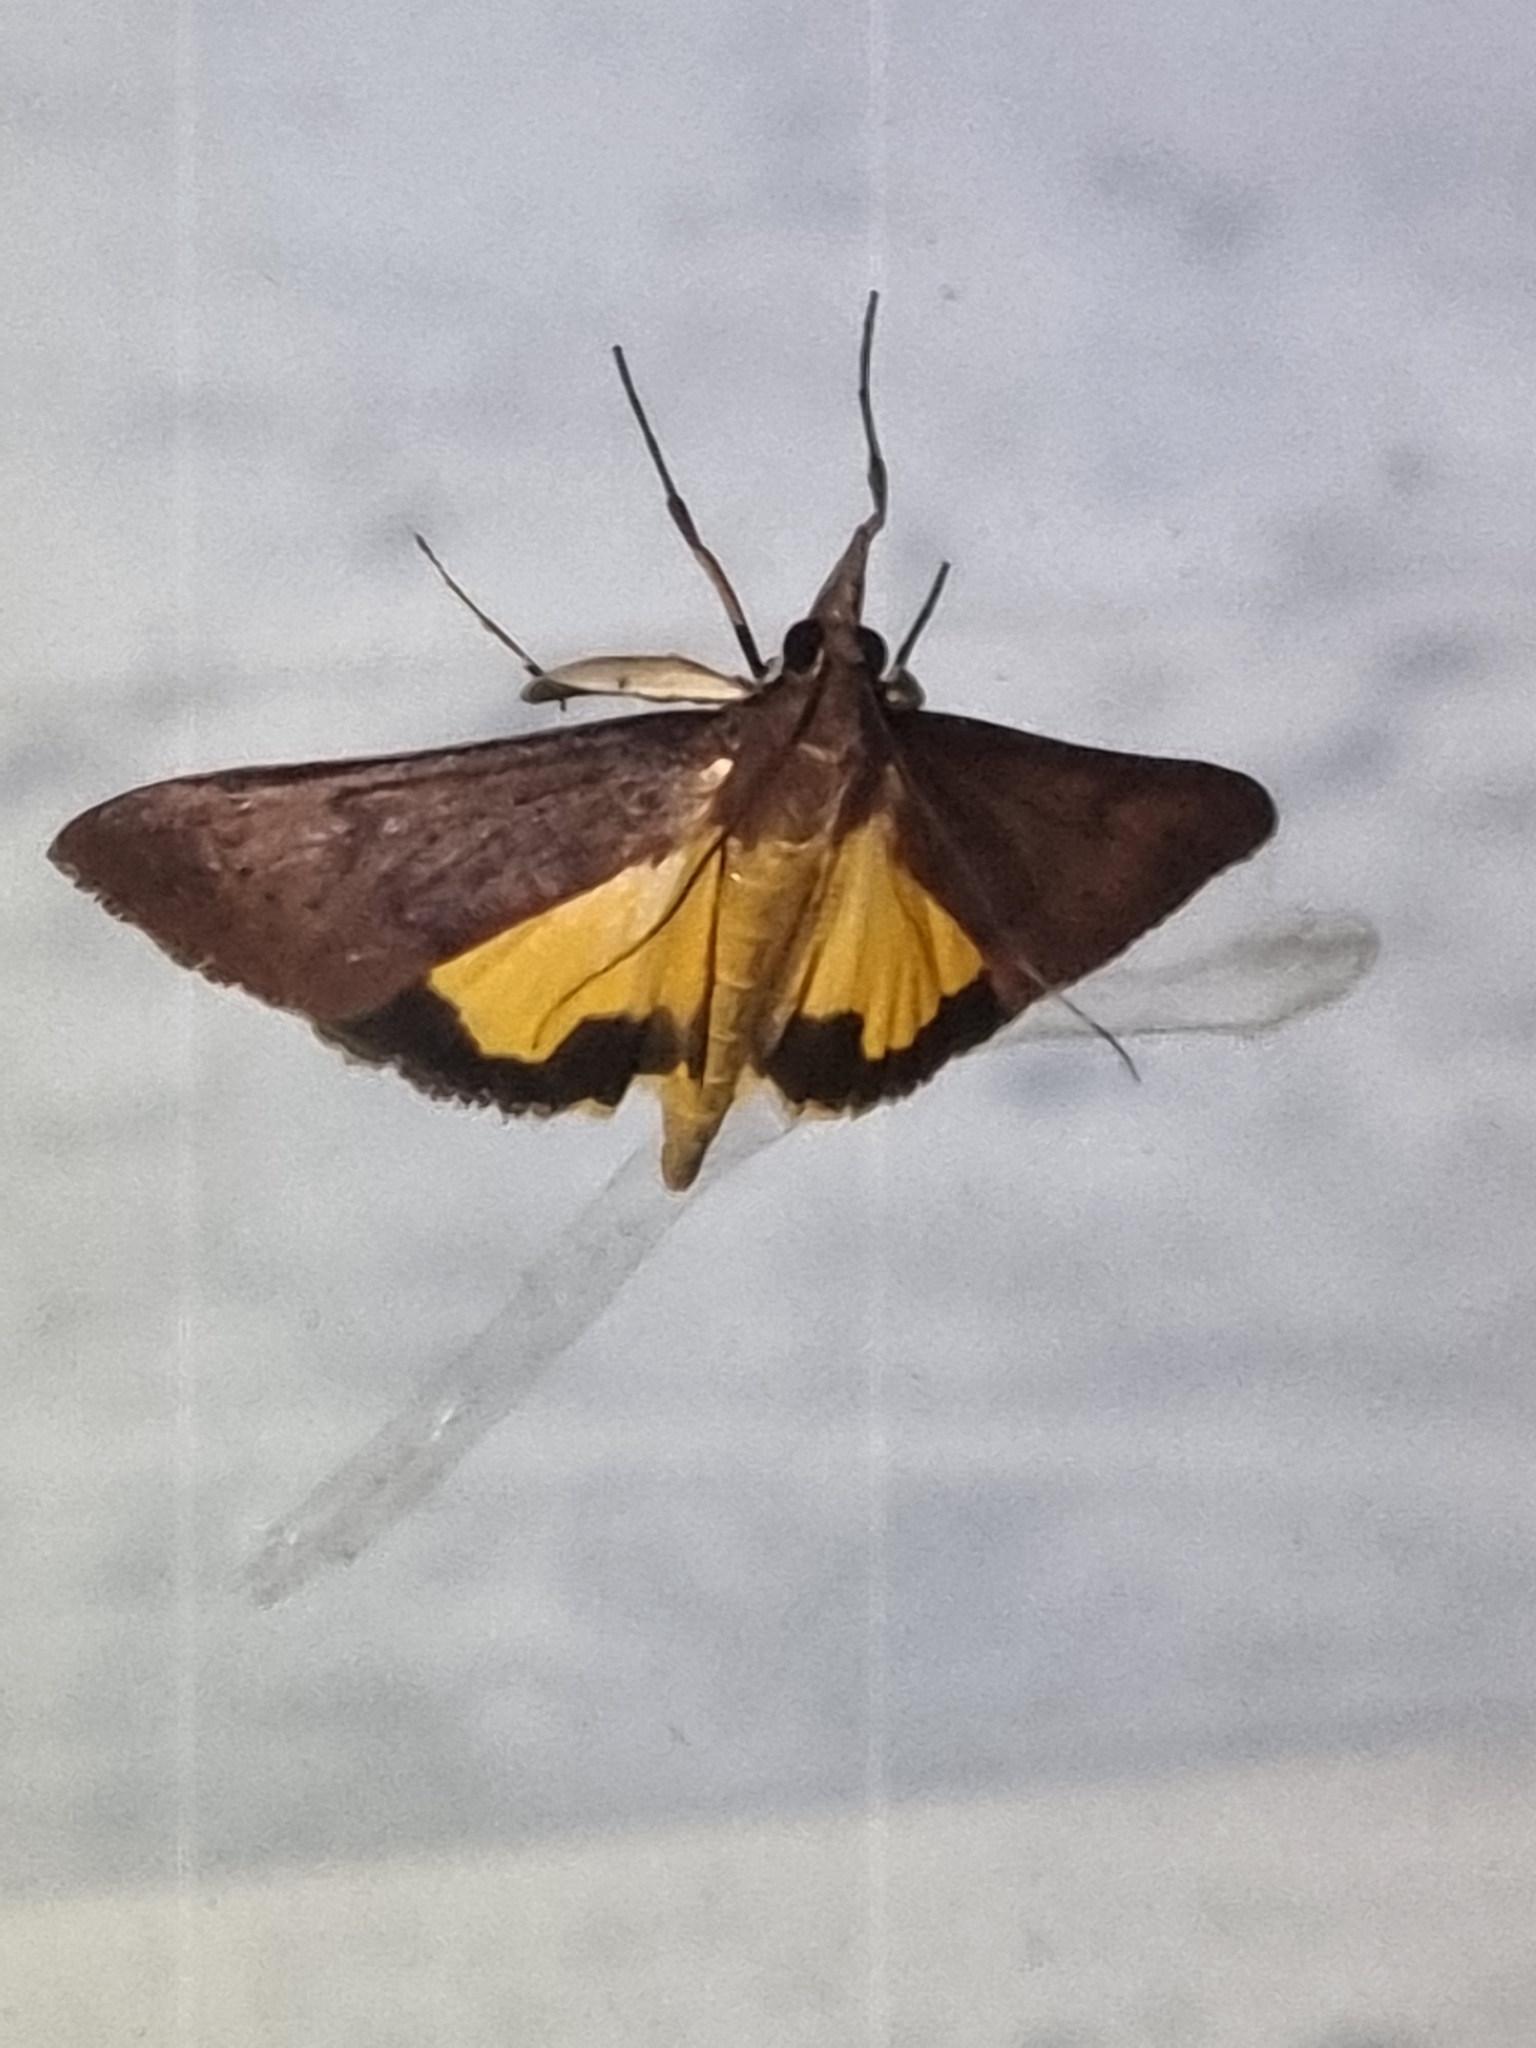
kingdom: Animalia
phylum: Arthropoda
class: Insecta
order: Lepidoptera
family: Crambidae
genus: Uresiphita
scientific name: Uresiphita ornithopteralis
